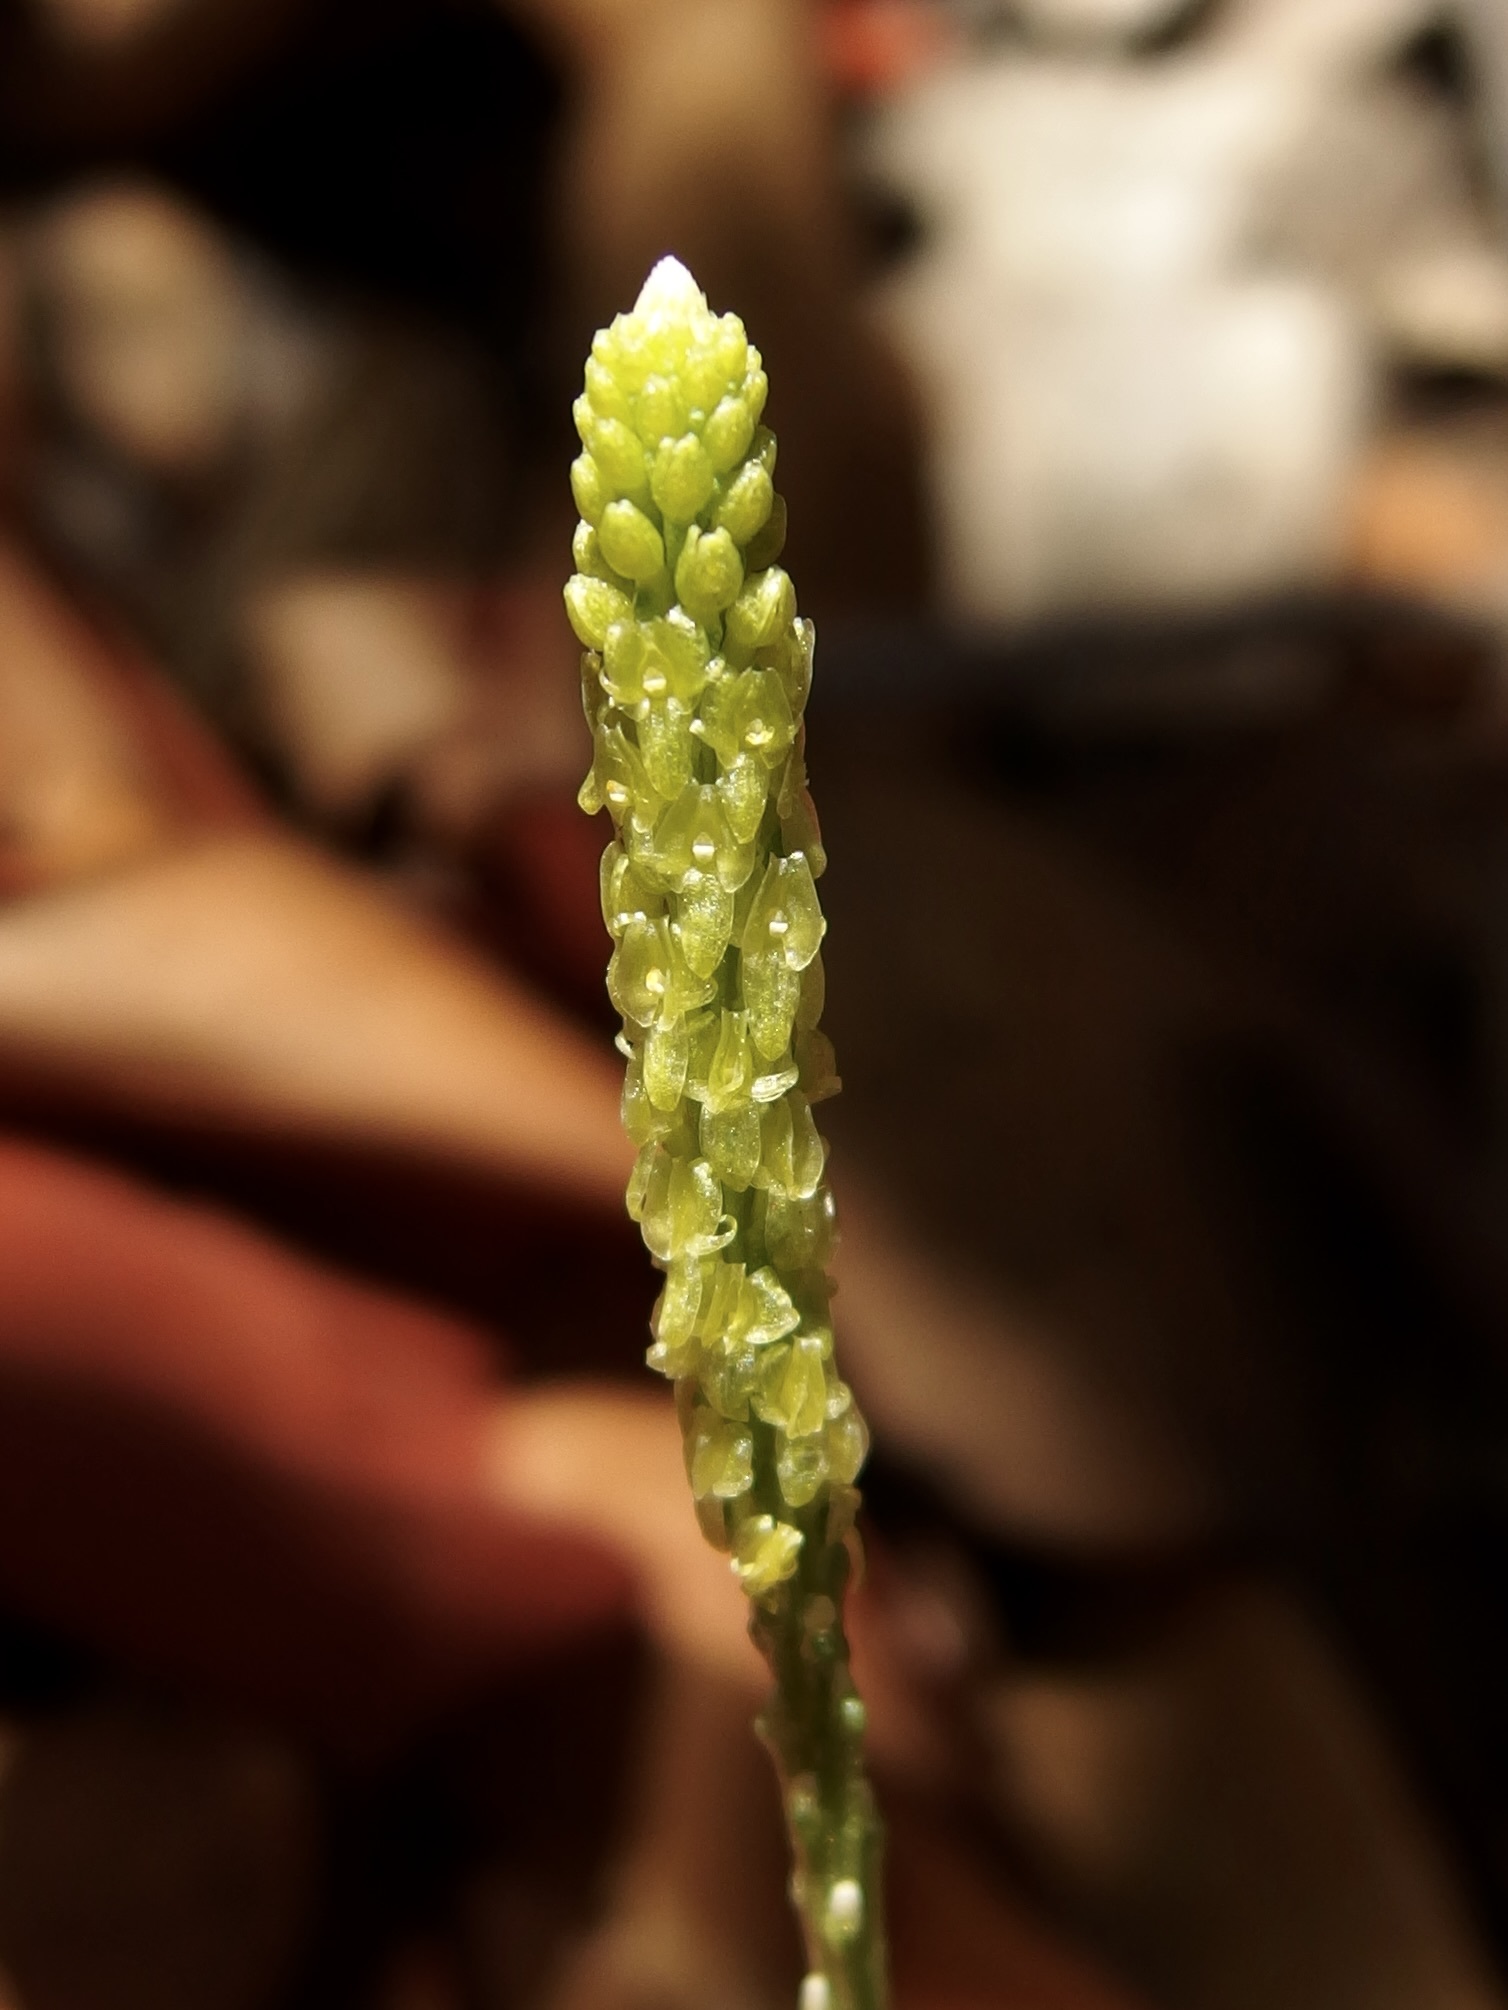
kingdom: Plantae
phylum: Tracheophyta
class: Liliopsida
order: Asparagales
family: Orchidaceae
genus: Malaxis
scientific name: Malaxis macrostachya
